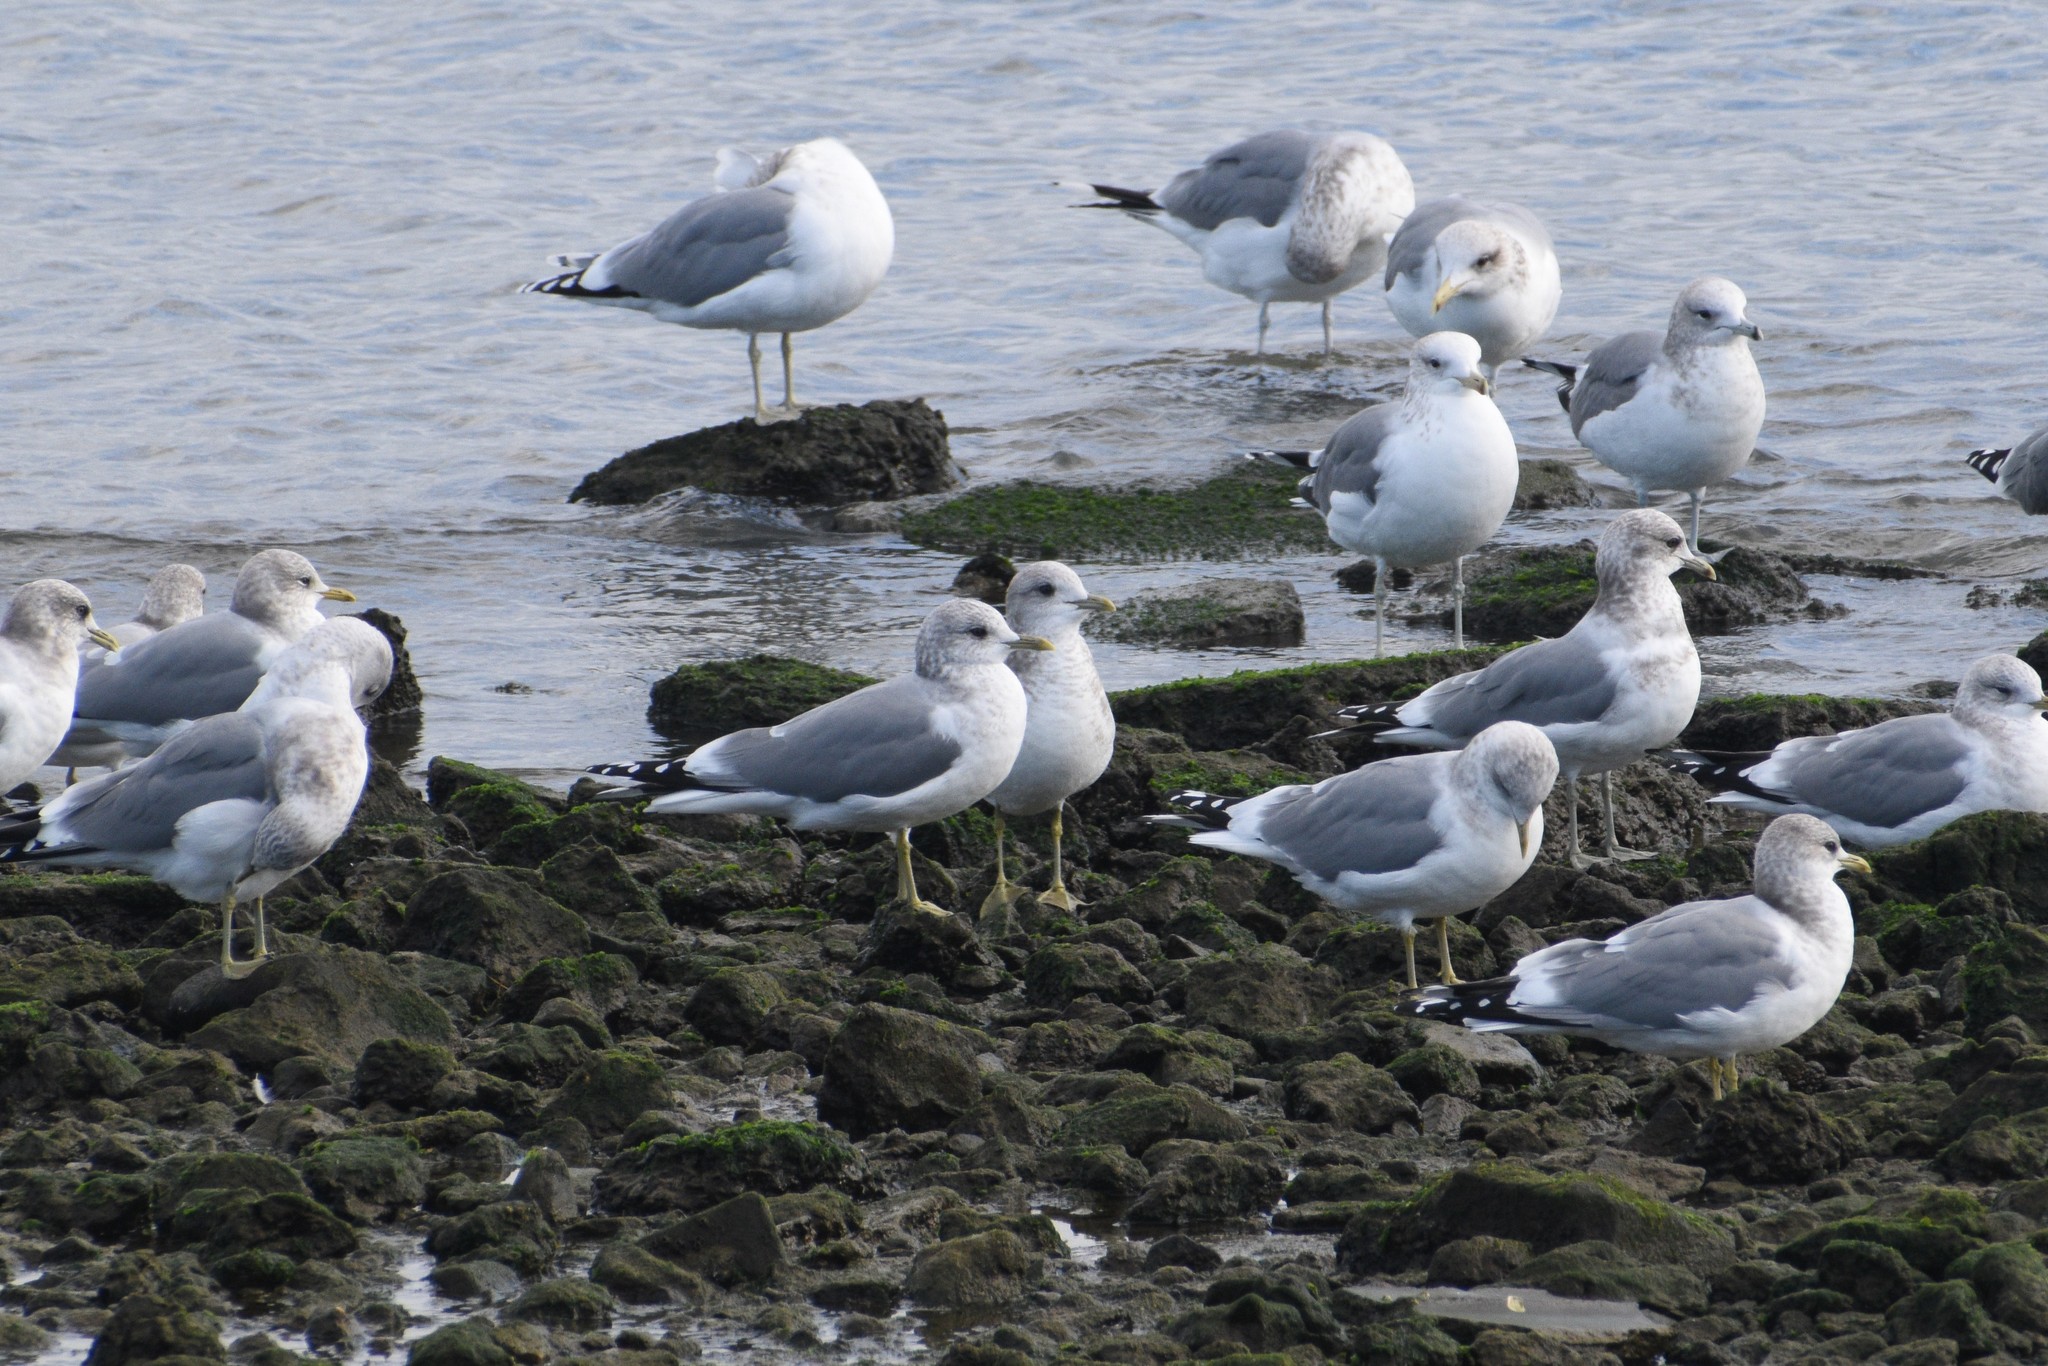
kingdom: Animalia
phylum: Chordata
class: Aves
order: Charadriiformes
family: Laridae
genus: Larus
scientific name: Larus brachyrhynchus
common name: Short-billed gull
